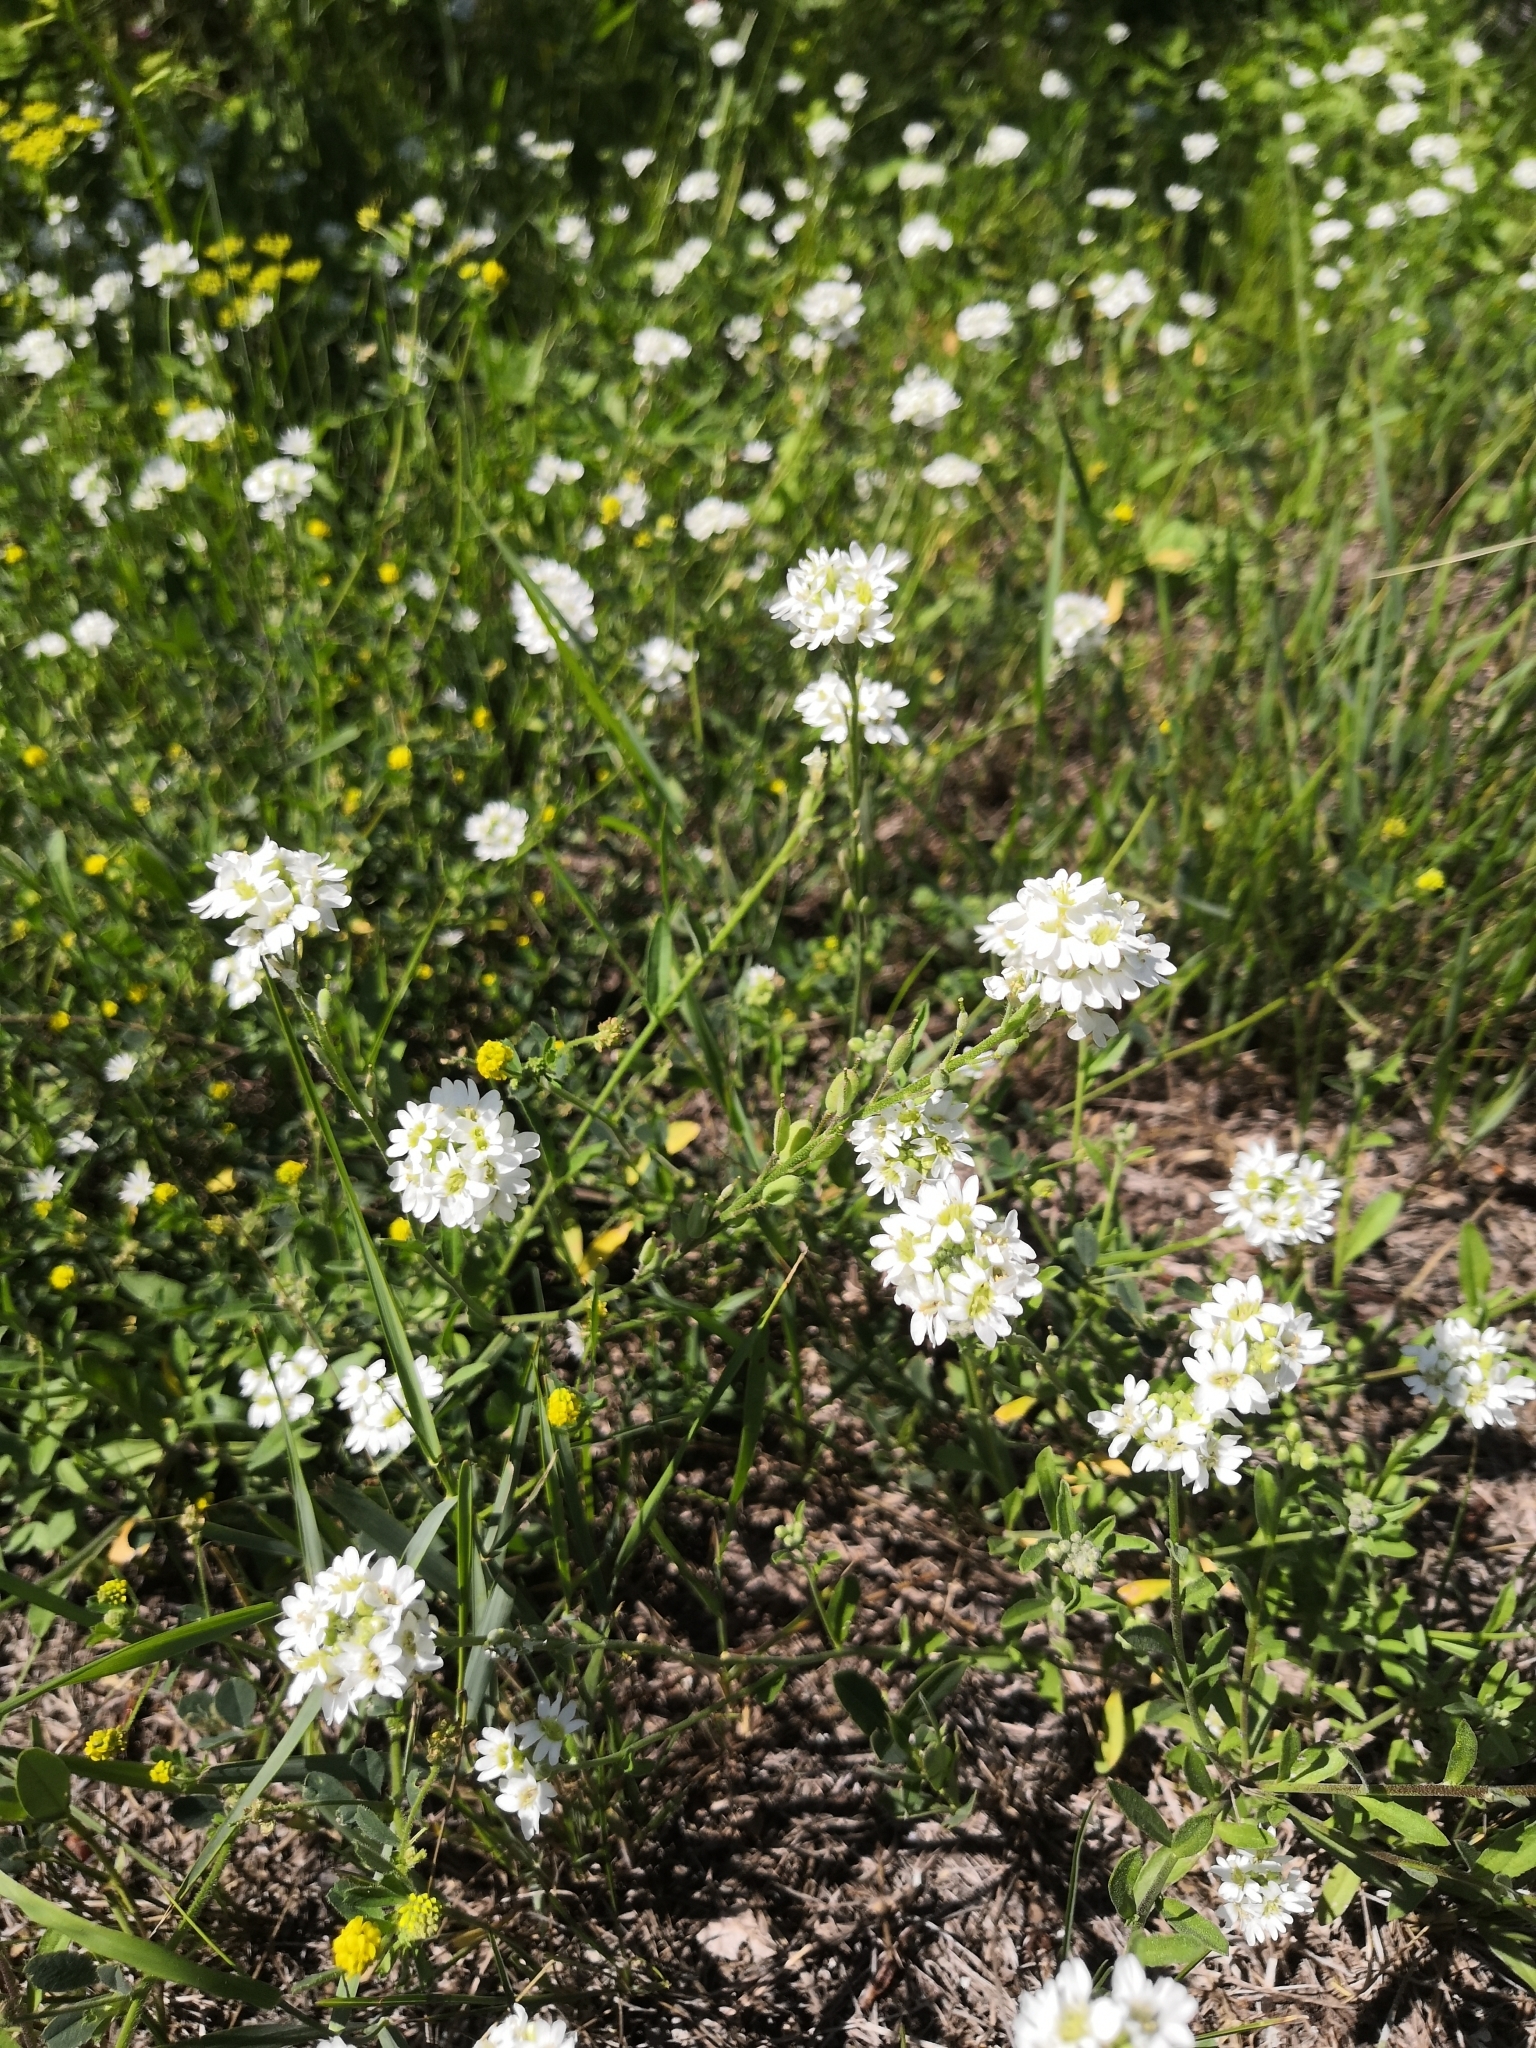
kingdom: Plantae
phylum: Tracheophyta
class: Magnoliopsida
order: Brassicales
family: Brassicaceae
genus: Berteroa
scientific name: Berteroa incana
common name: Hoary alison
